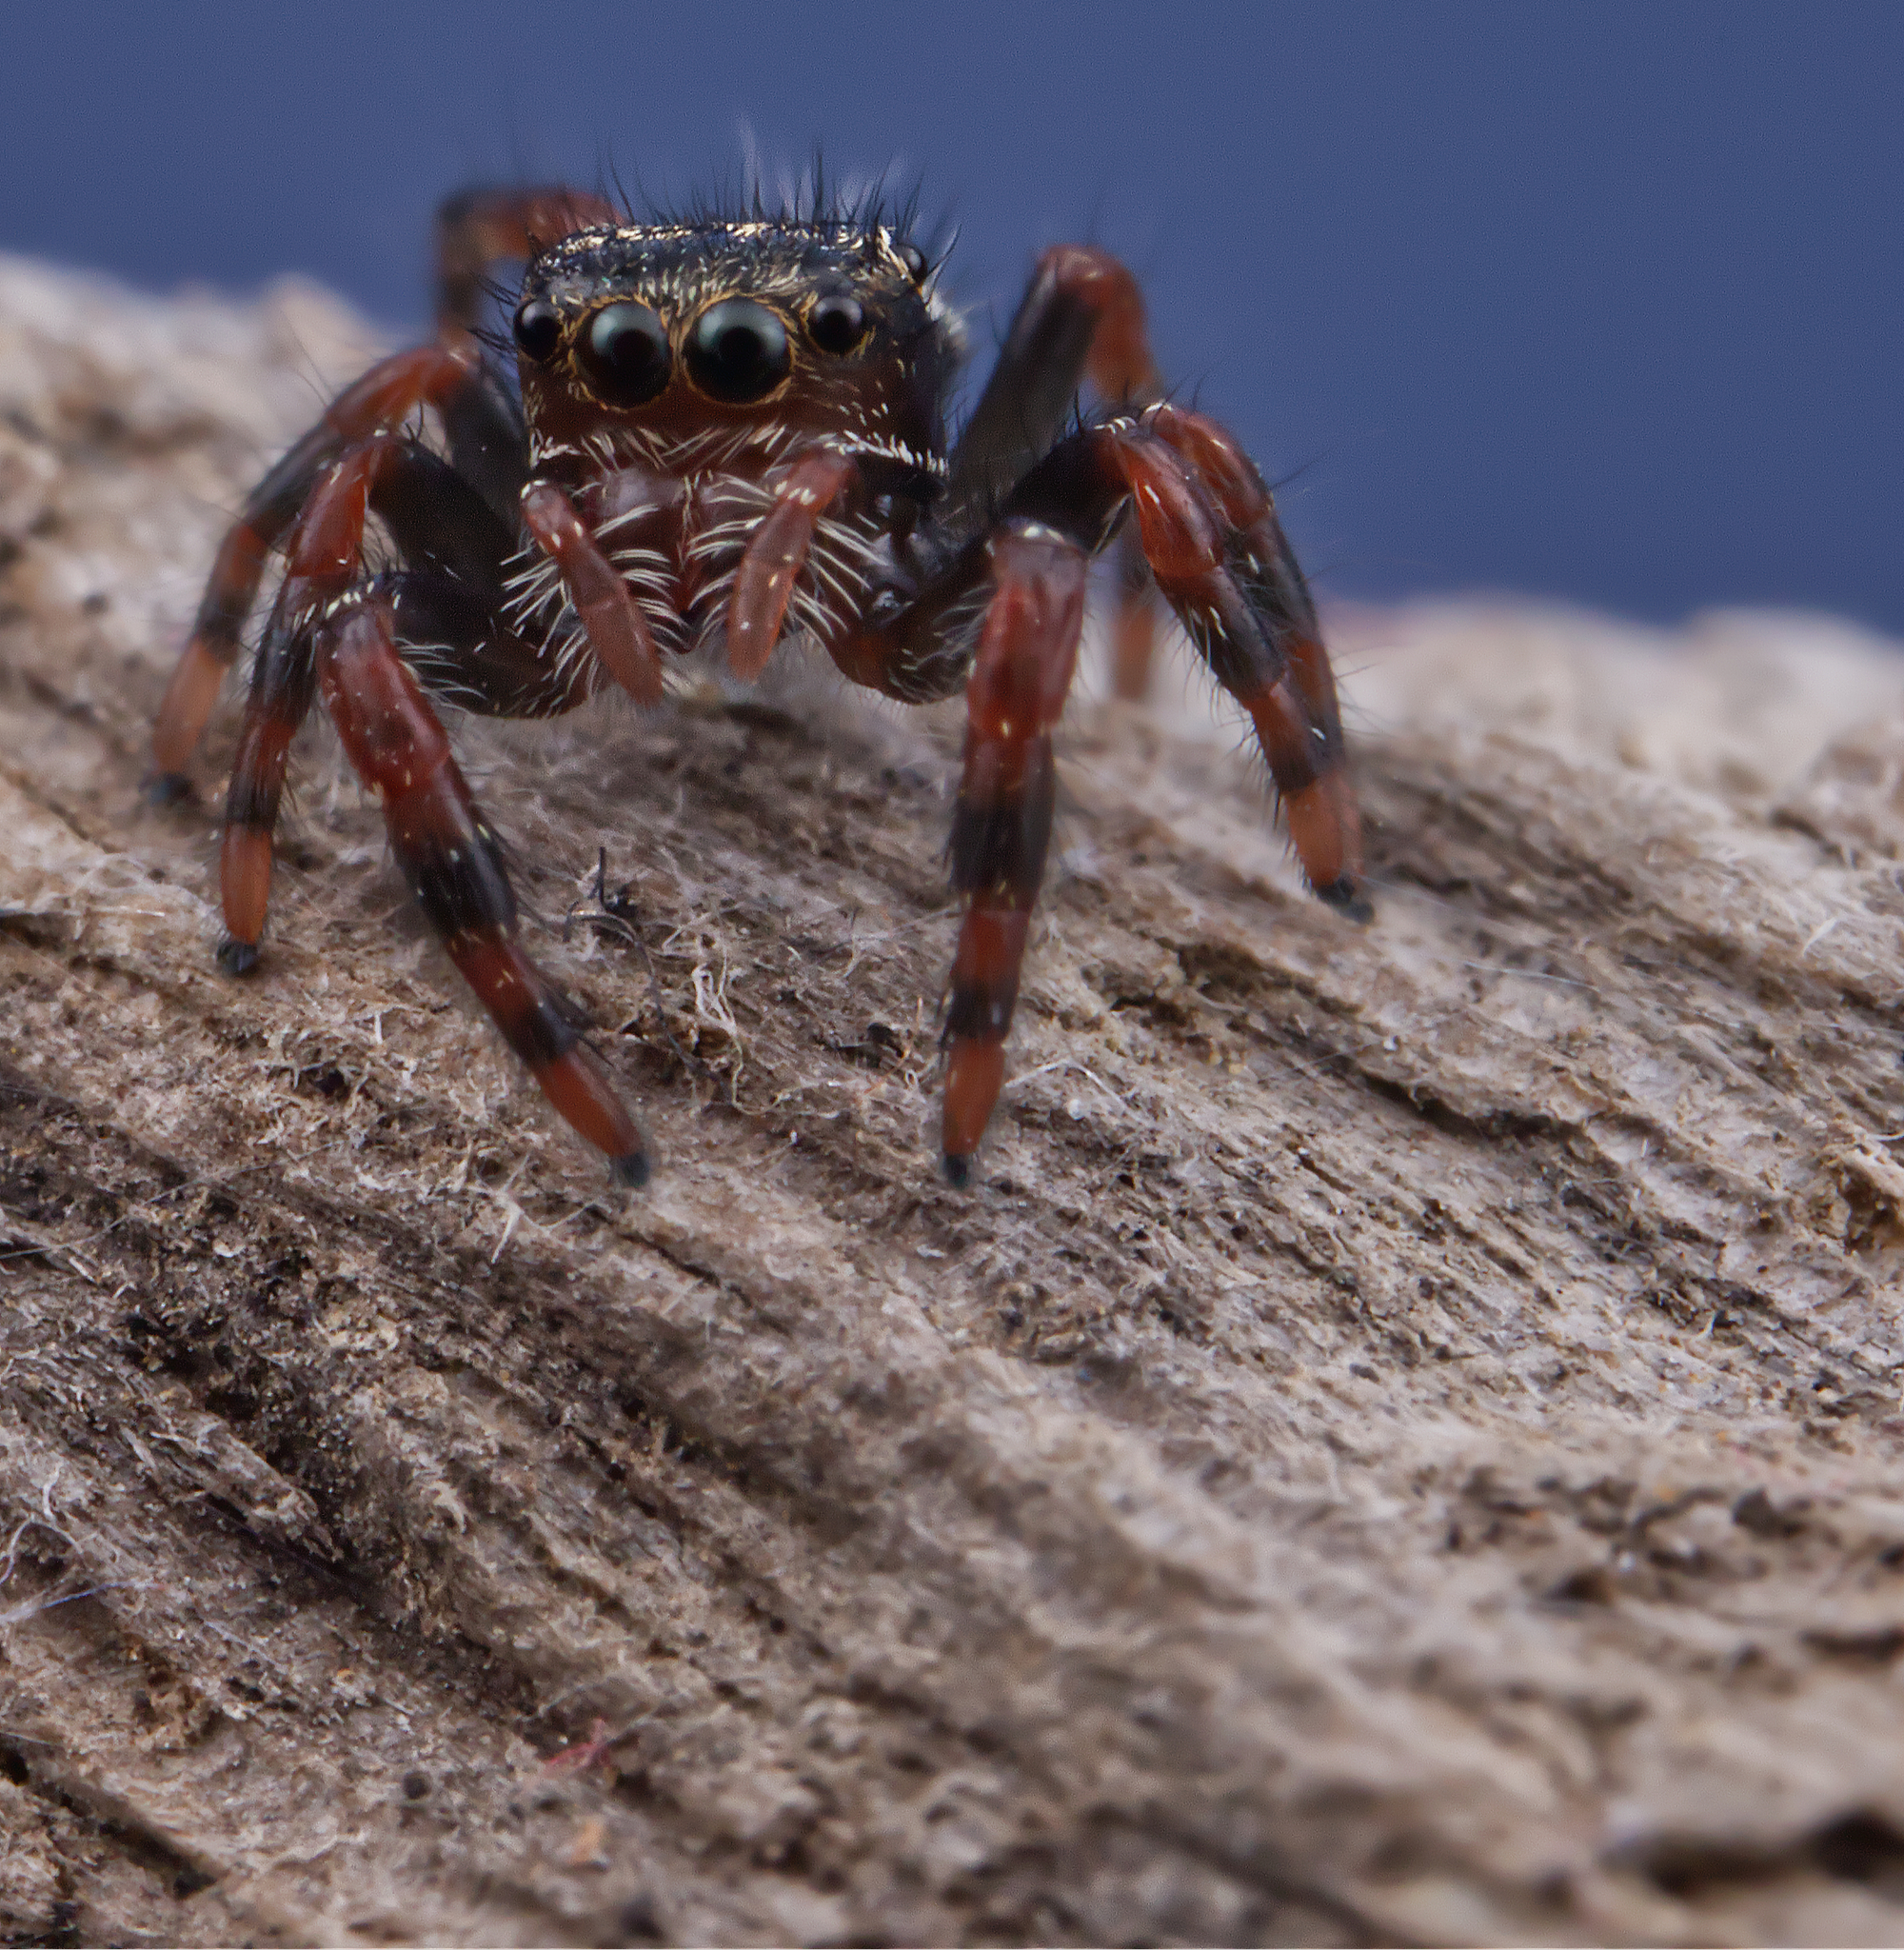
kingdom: Animalia
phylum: Arthropoda
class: Arachnida
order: Araneae
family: Salticidae
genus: Phidippus
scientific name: Phidippus audax
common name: Bold jumper
